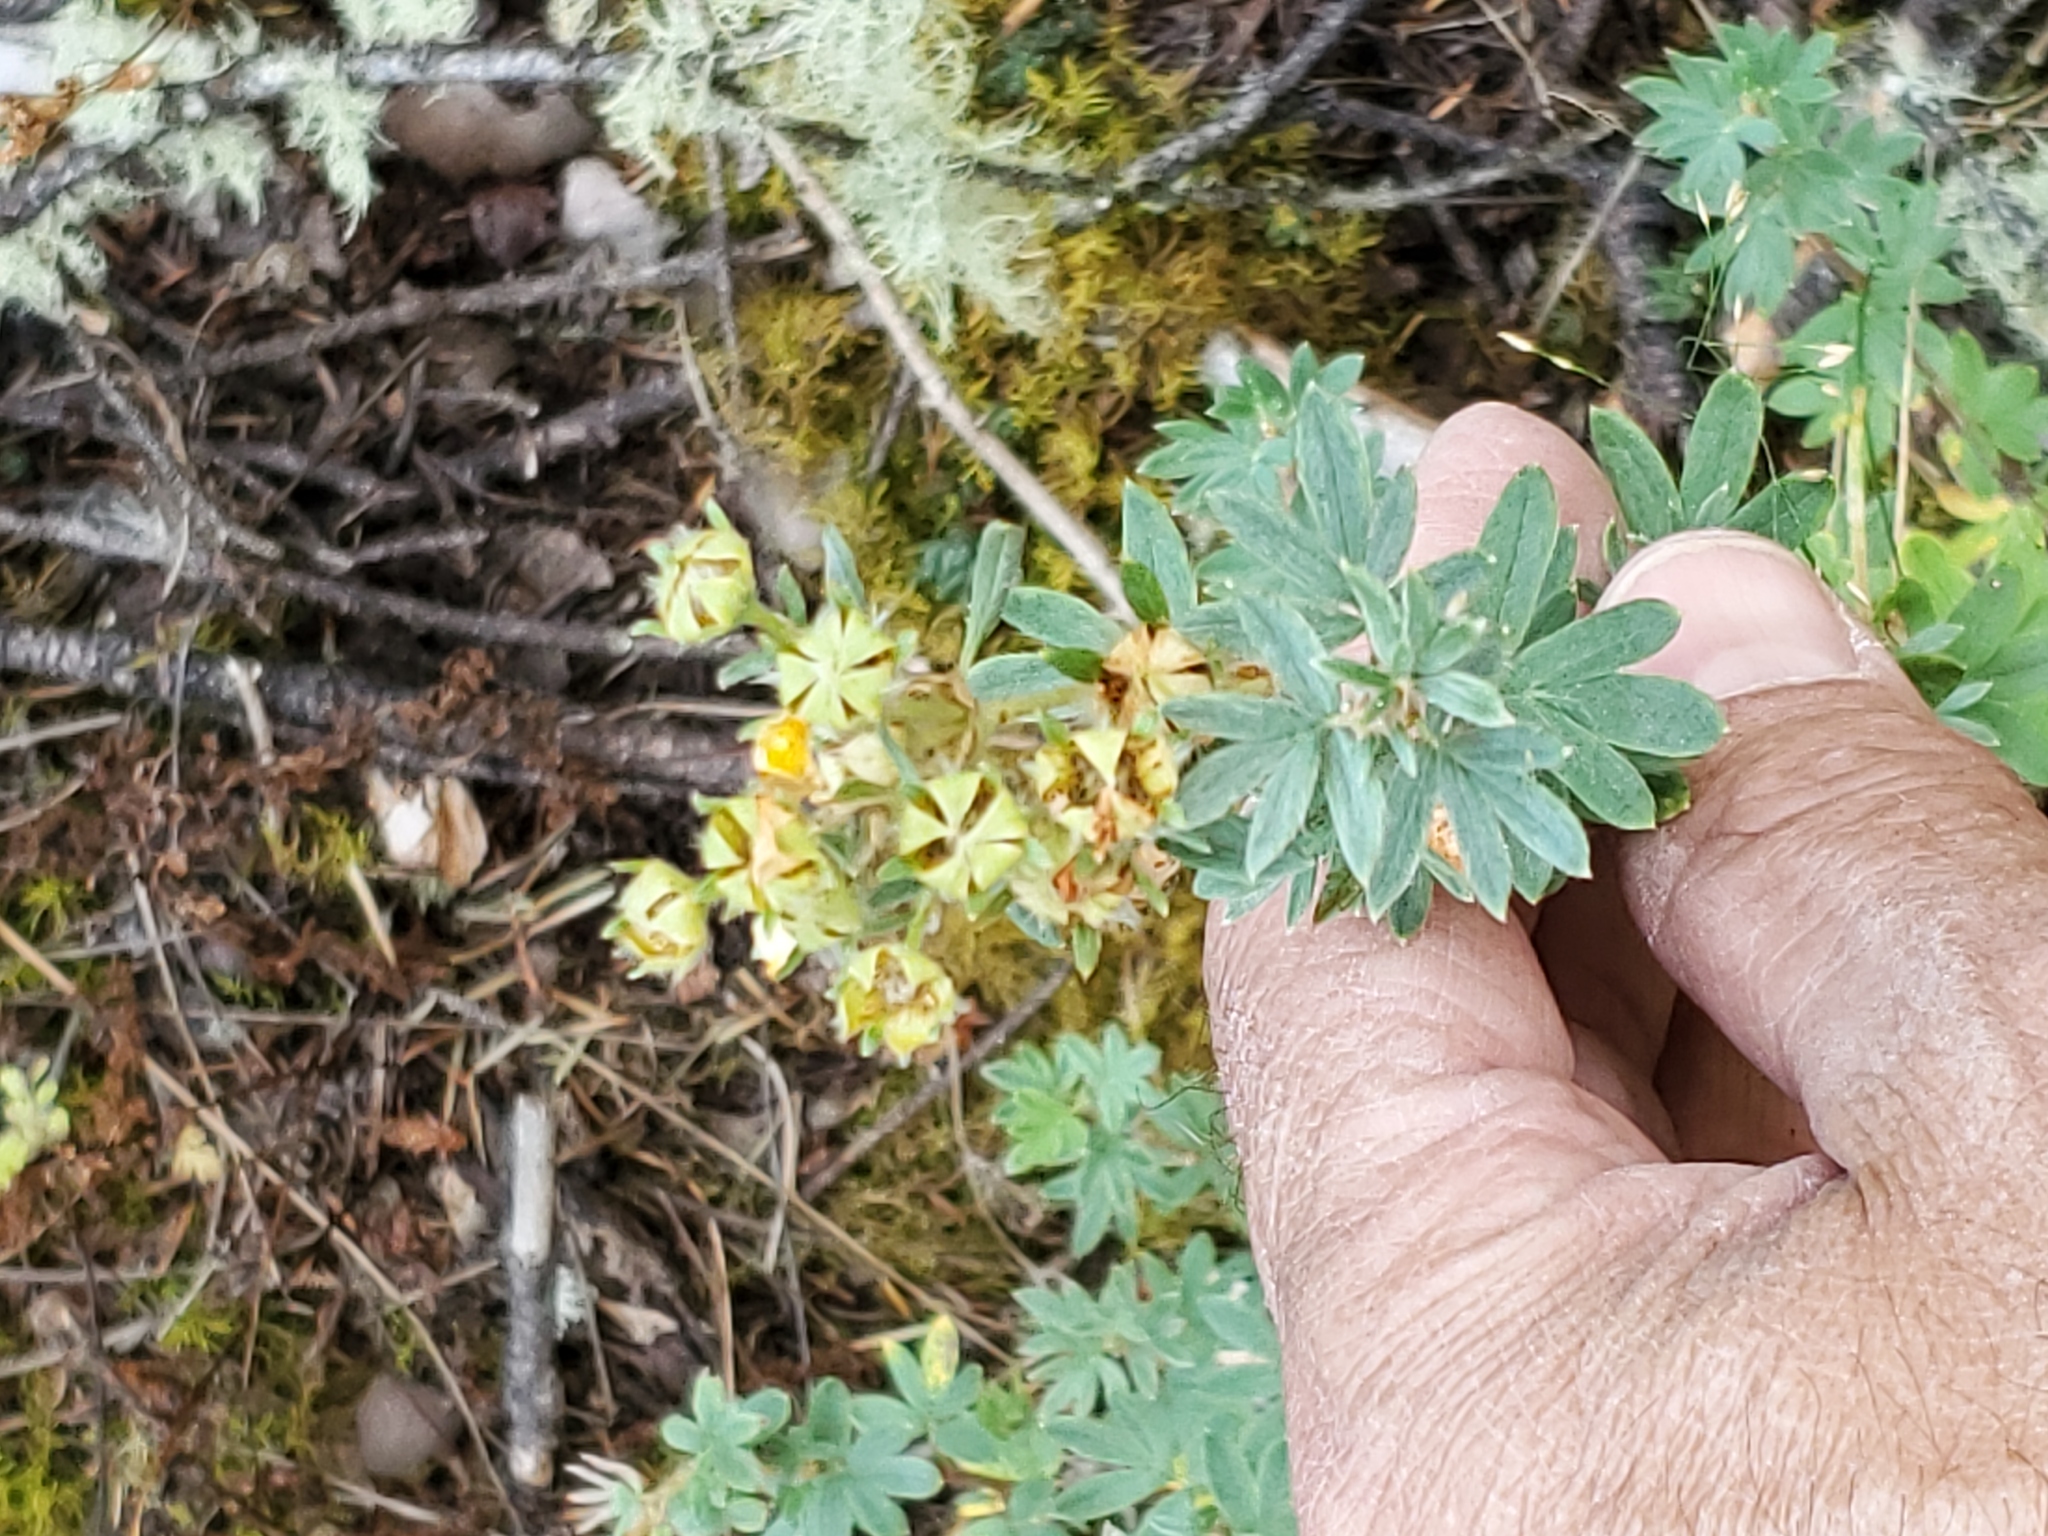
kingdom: Plantae
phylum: Tracheophyta
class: Magnoliopsida
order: Rosales
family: Rosaceae
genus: Dasiphora
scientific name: Dasiphora fruticosa
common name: Shrubby cinquefoil
